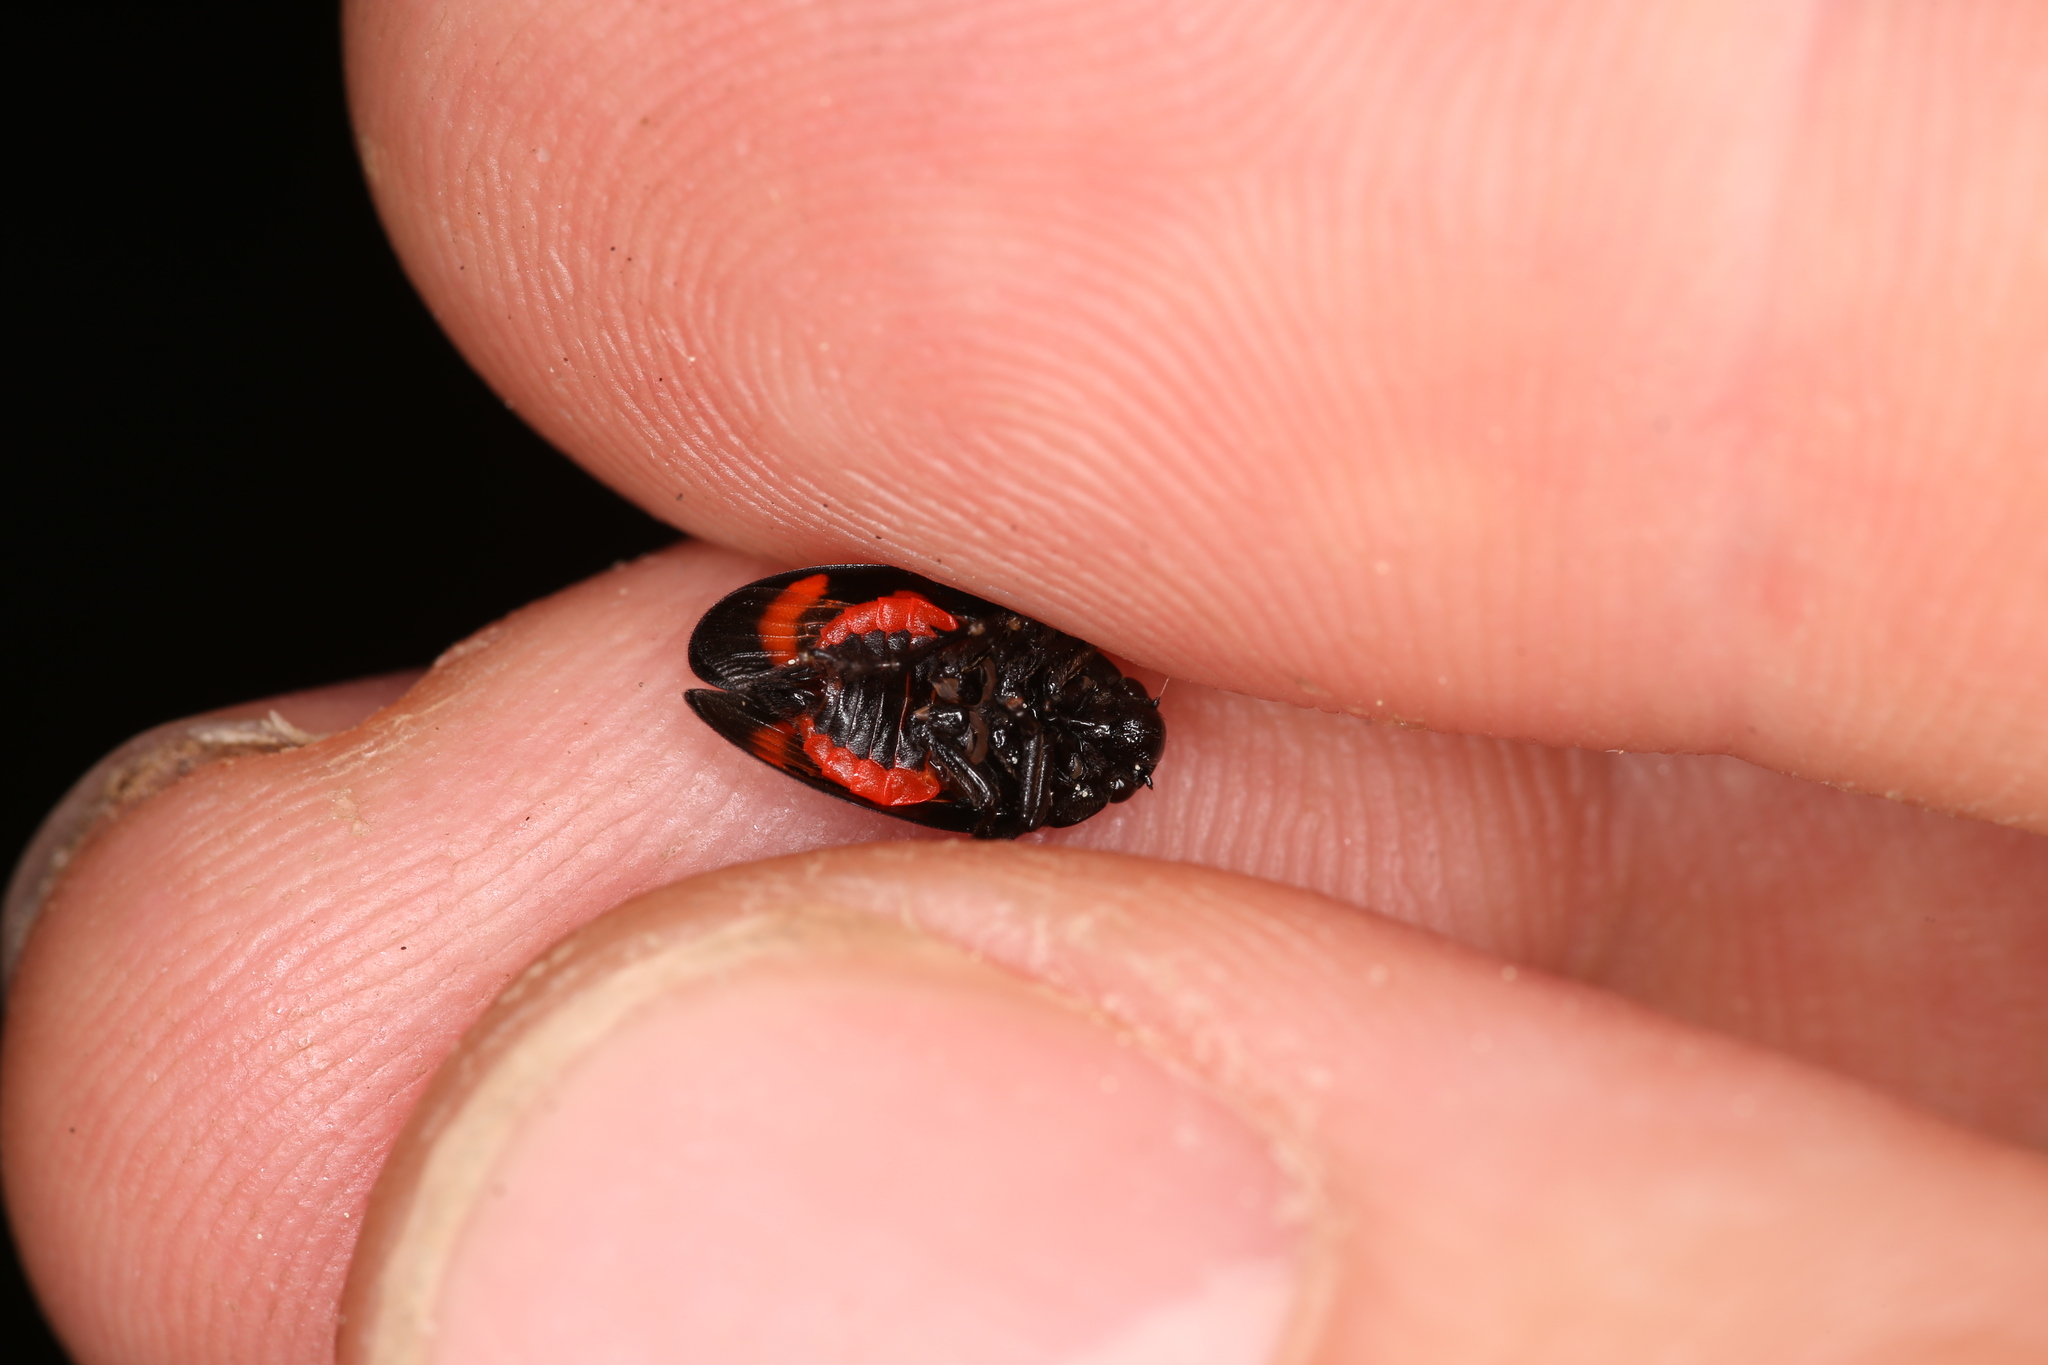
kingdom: Animalia
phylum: Arthropoda
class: Insecta
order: Hemiptera
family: Cercopidae
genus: Cercopis
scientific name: Cercopis arcuata
